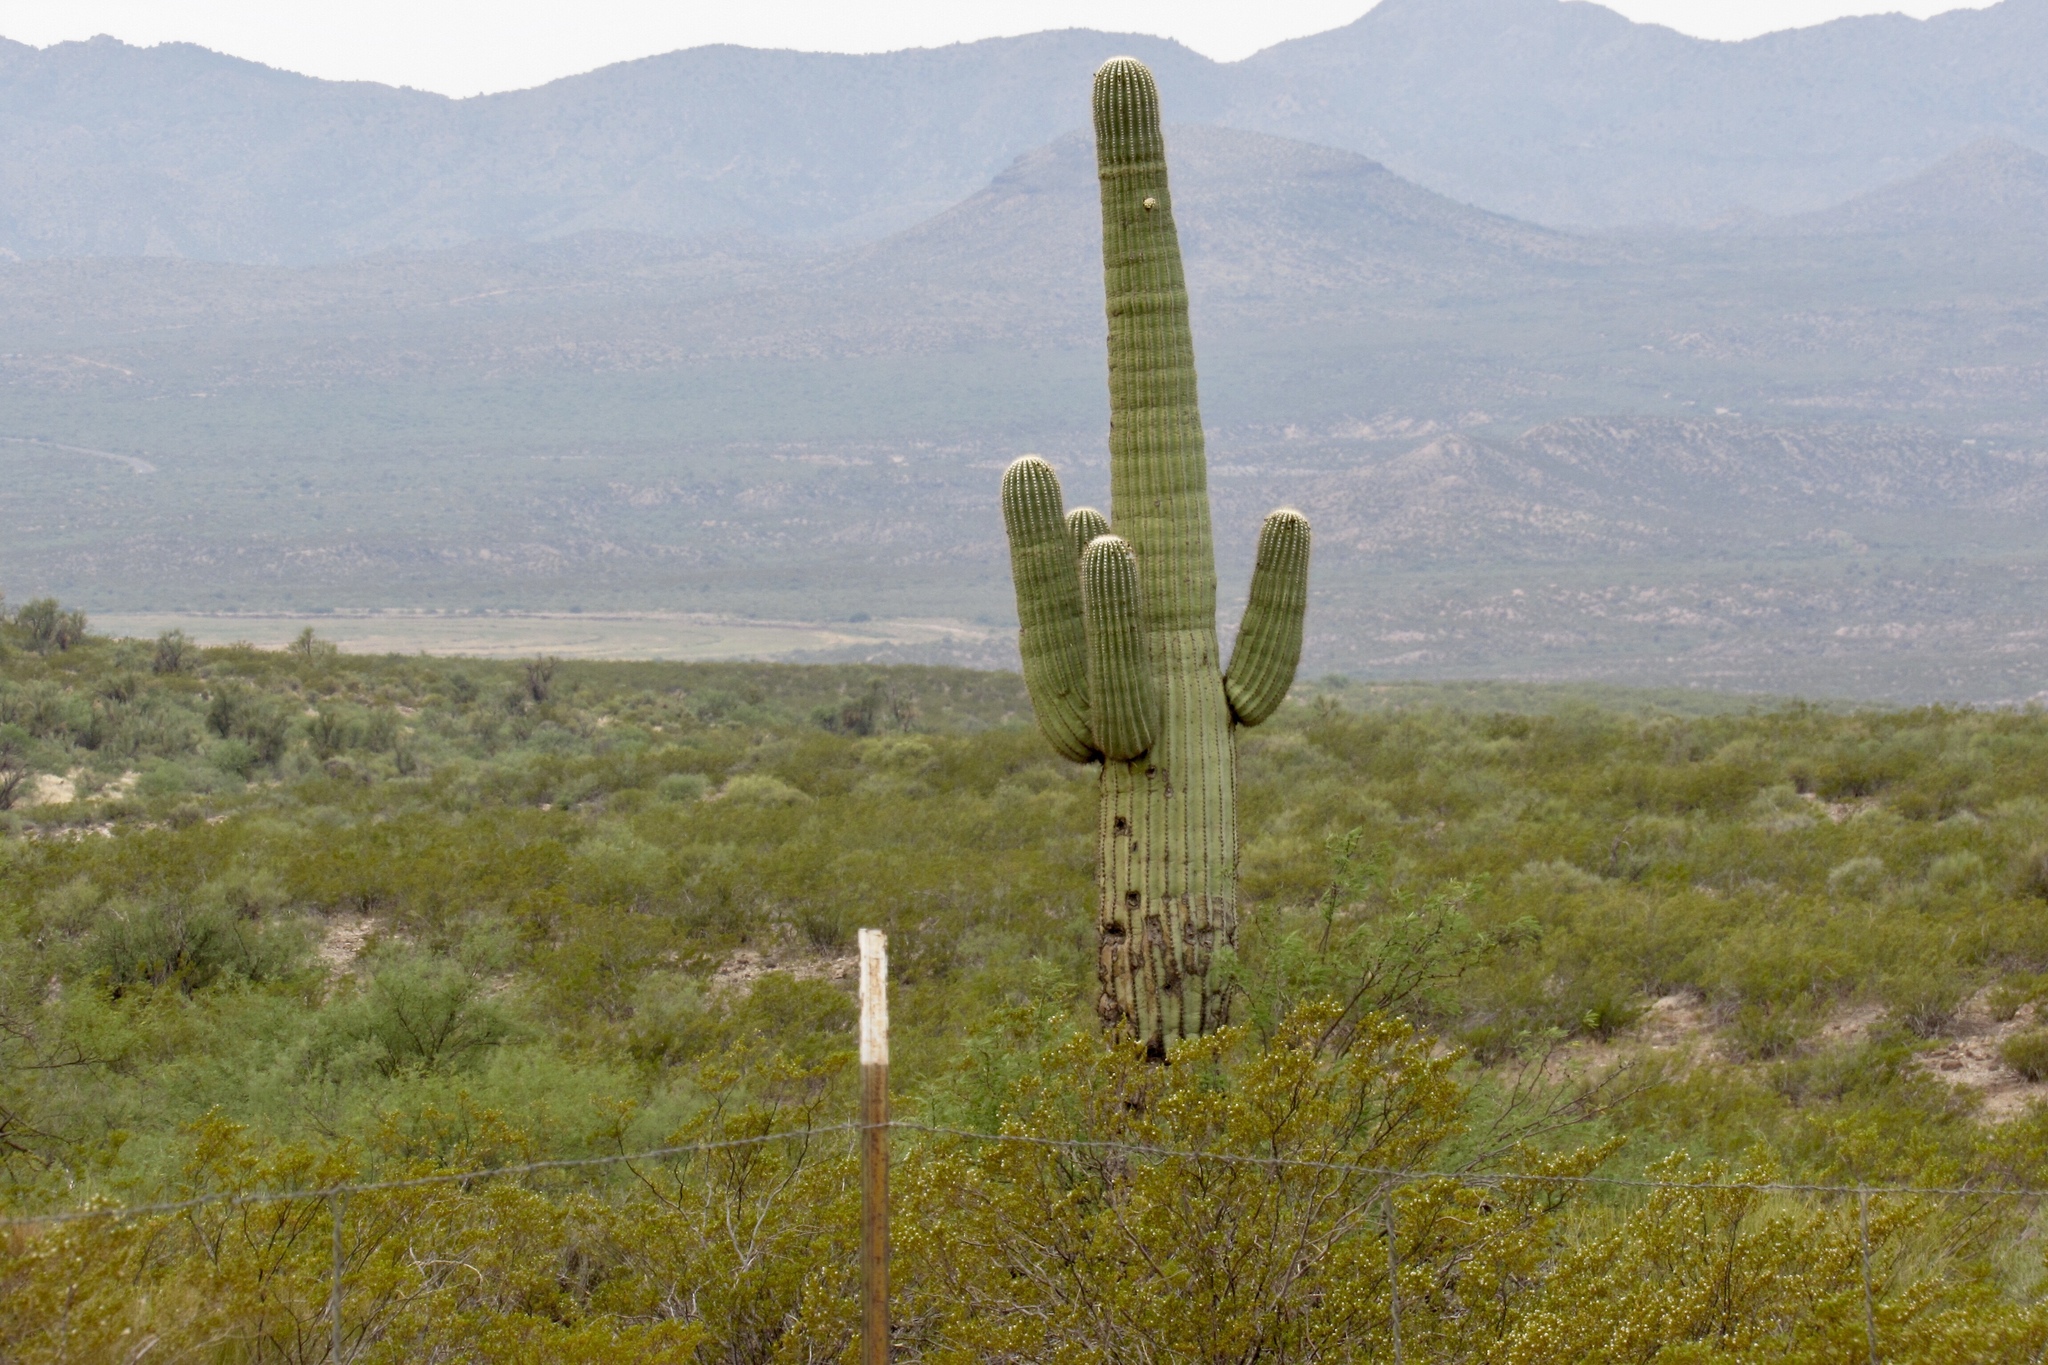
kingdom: Plantae
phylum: Tracheophyta
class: Magnoliopsida
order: Caryophyllales
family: Cactaceae
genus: Carnegiea
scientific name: Carnegiea gigantea
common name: Saguaro
